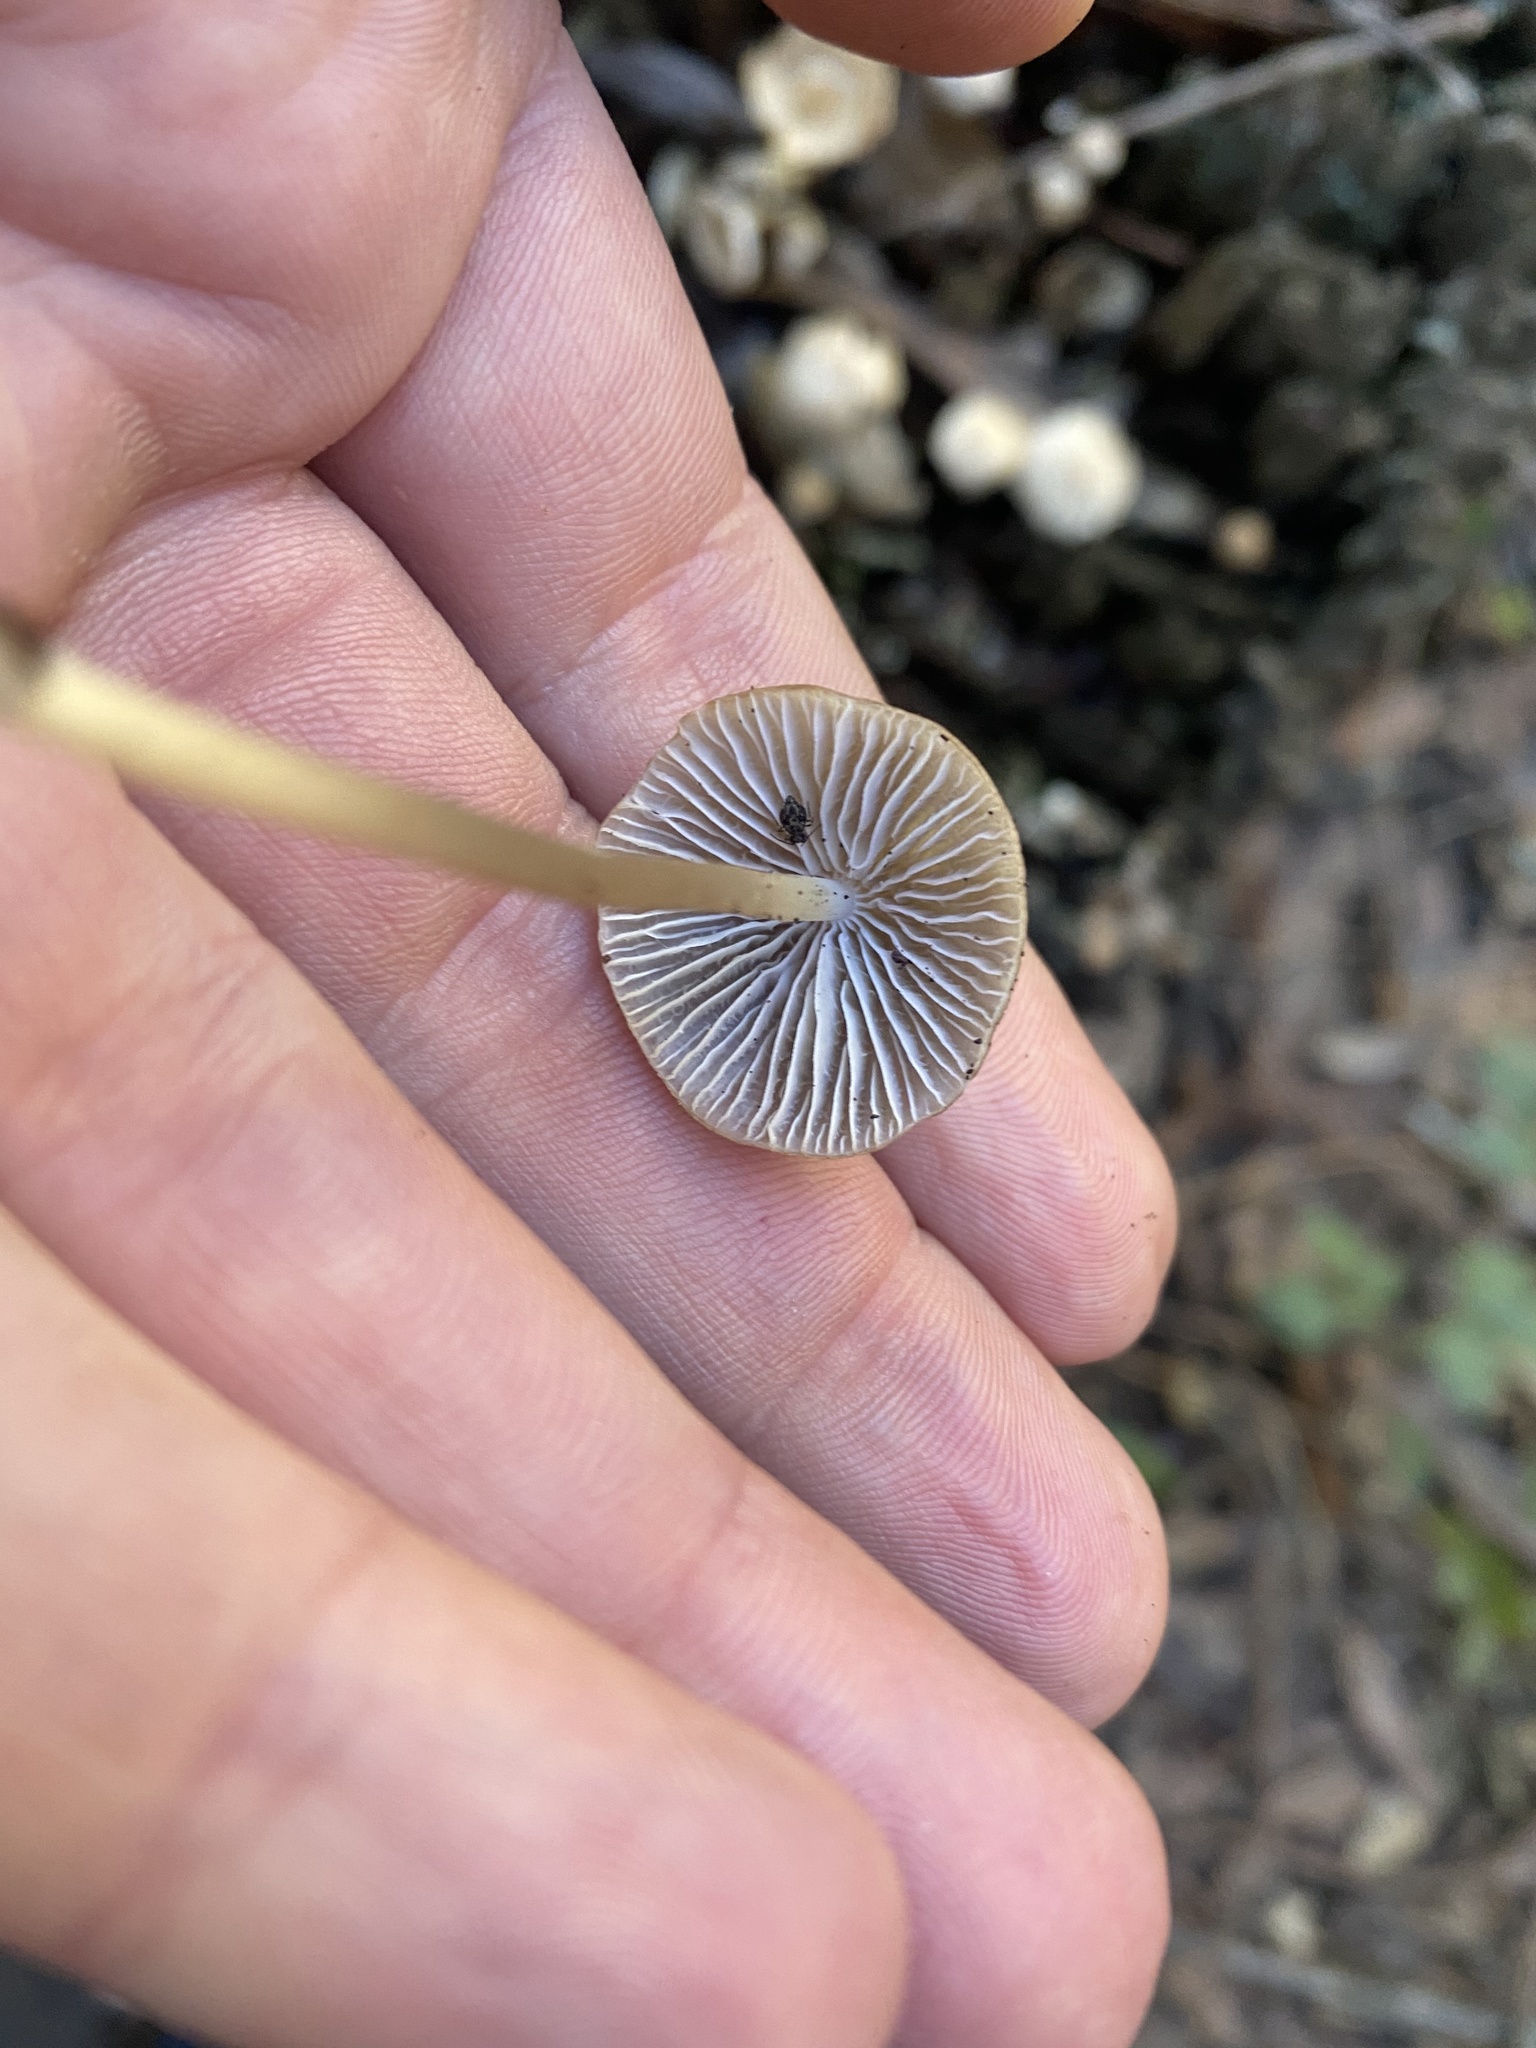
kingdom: Fungi
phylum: Basidiomycota
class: Agaricomycetes
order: Agaricales
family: Mycenaceae
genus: Mycena
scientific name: Mycena galericulata
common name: Bonnet mycena
